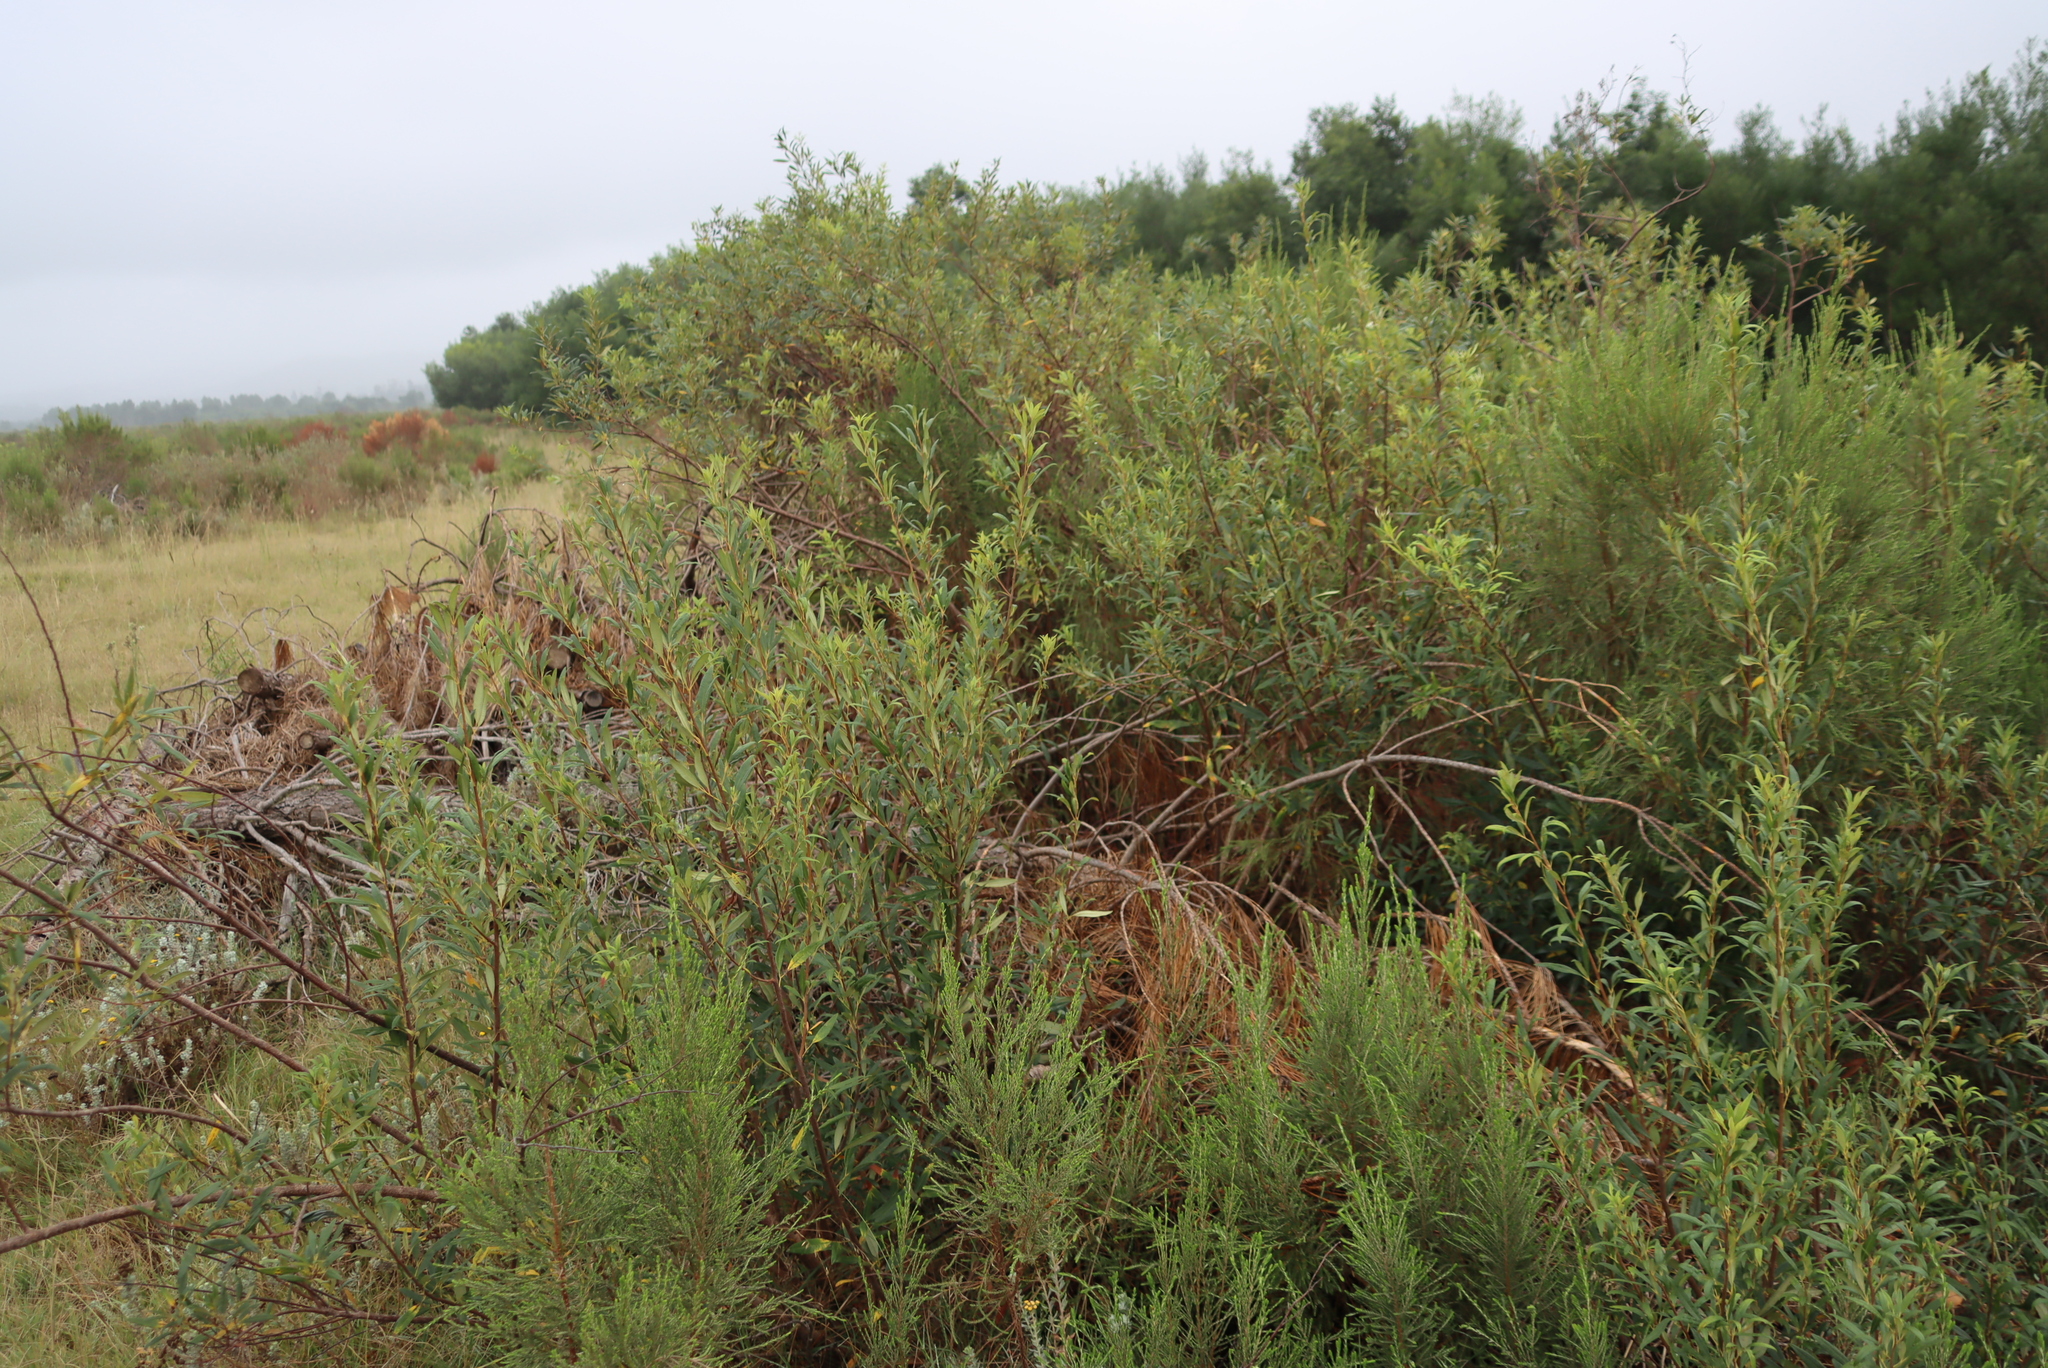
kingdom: Plantae
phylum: Tracheophyta
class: Magnoliopsida
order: Sapindales
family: Anacardiaceae
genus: Searsia
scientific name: Searsia angustifolia
